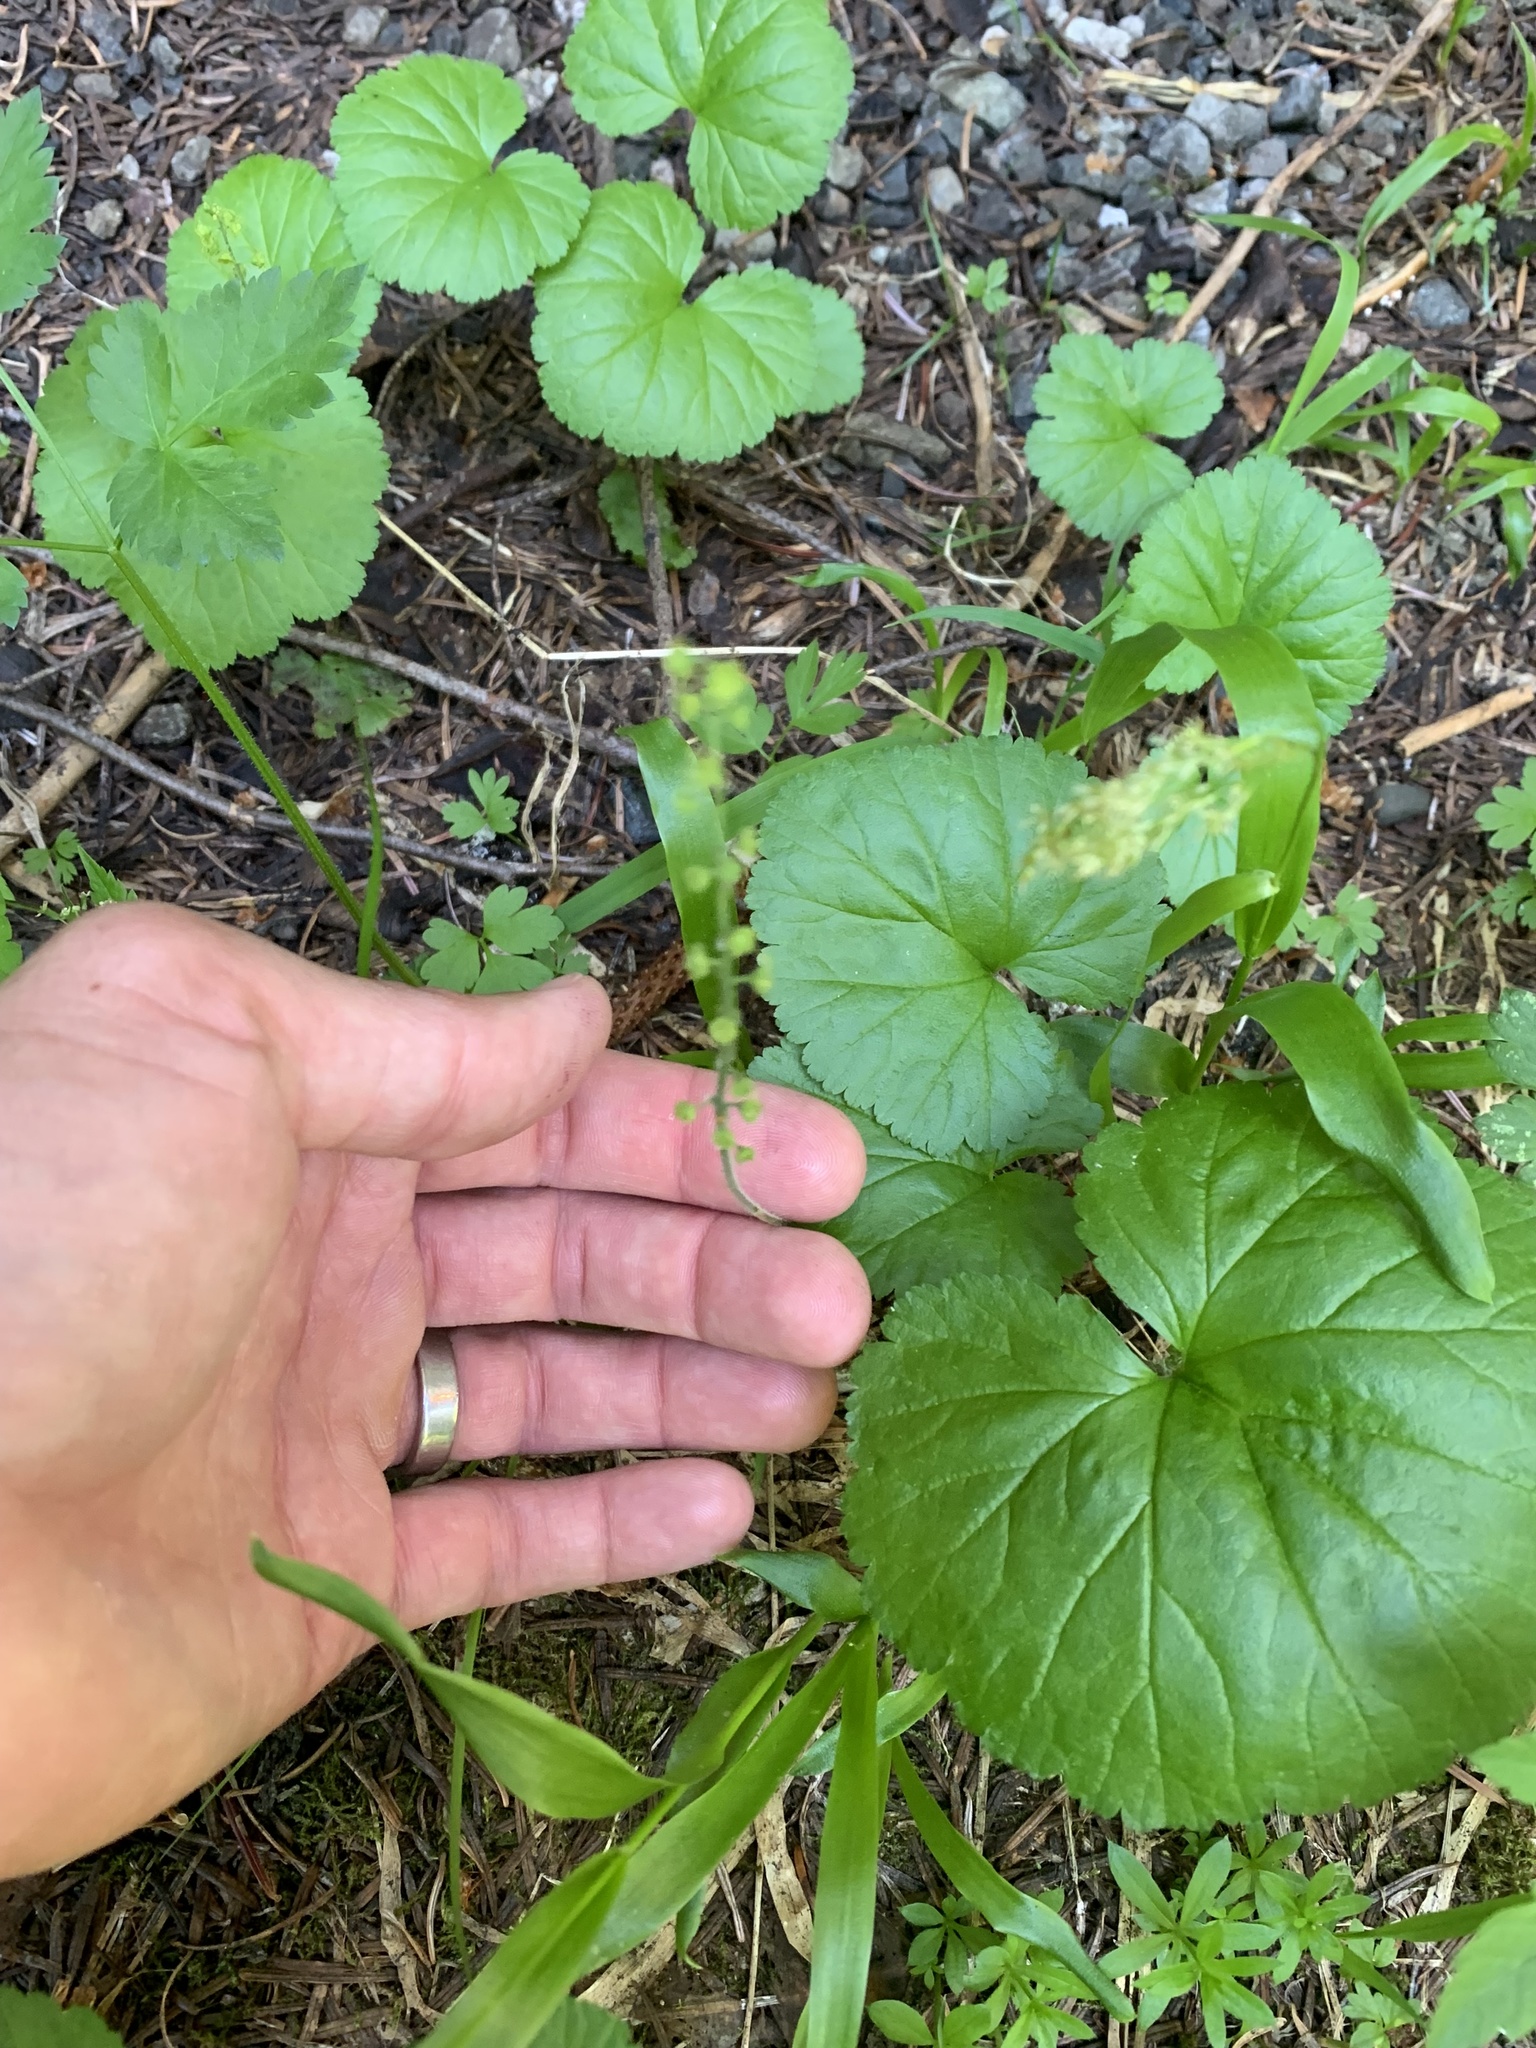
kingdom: Plantae
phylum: Tracheophyta
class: Magnoliopsida
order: Saxifragales
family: Saxifragaceae
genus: Brewerimitella
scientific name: Brewerimitella breweri
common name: Brewer's bishop's-cap
